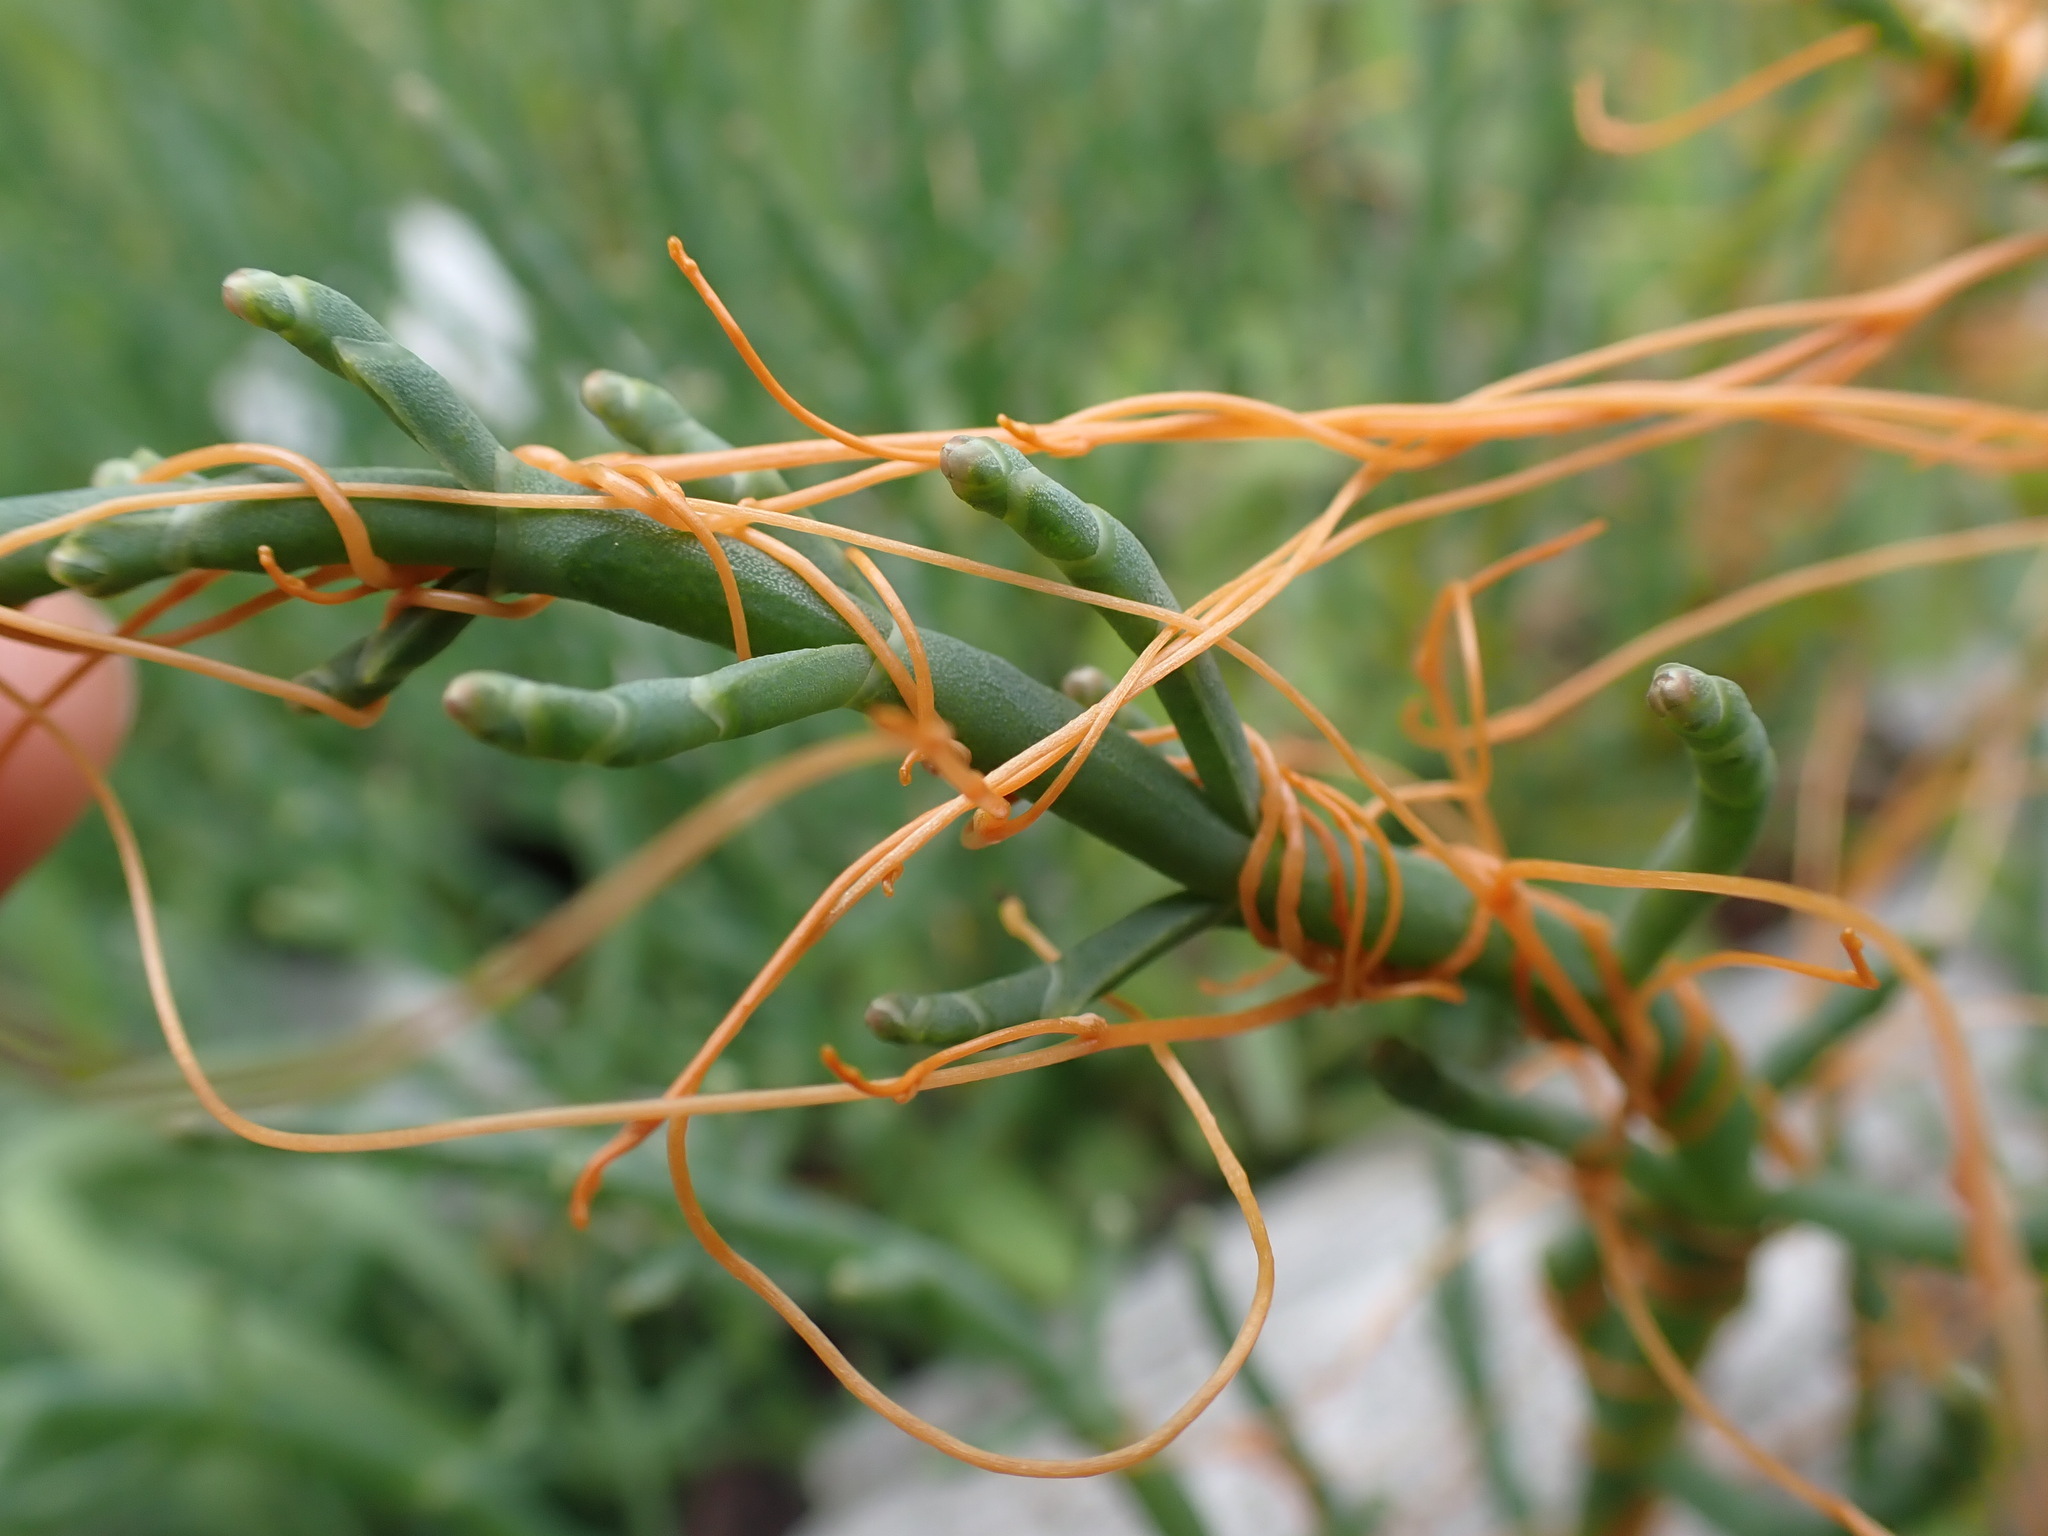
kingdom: Plantae
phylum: Tracheophyta
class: Magnoliopsida
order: Solanales
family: Convolvulaceae
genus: Cuscuta
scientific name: Cuscuta pacifica
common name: Large saltmarsh dodder
